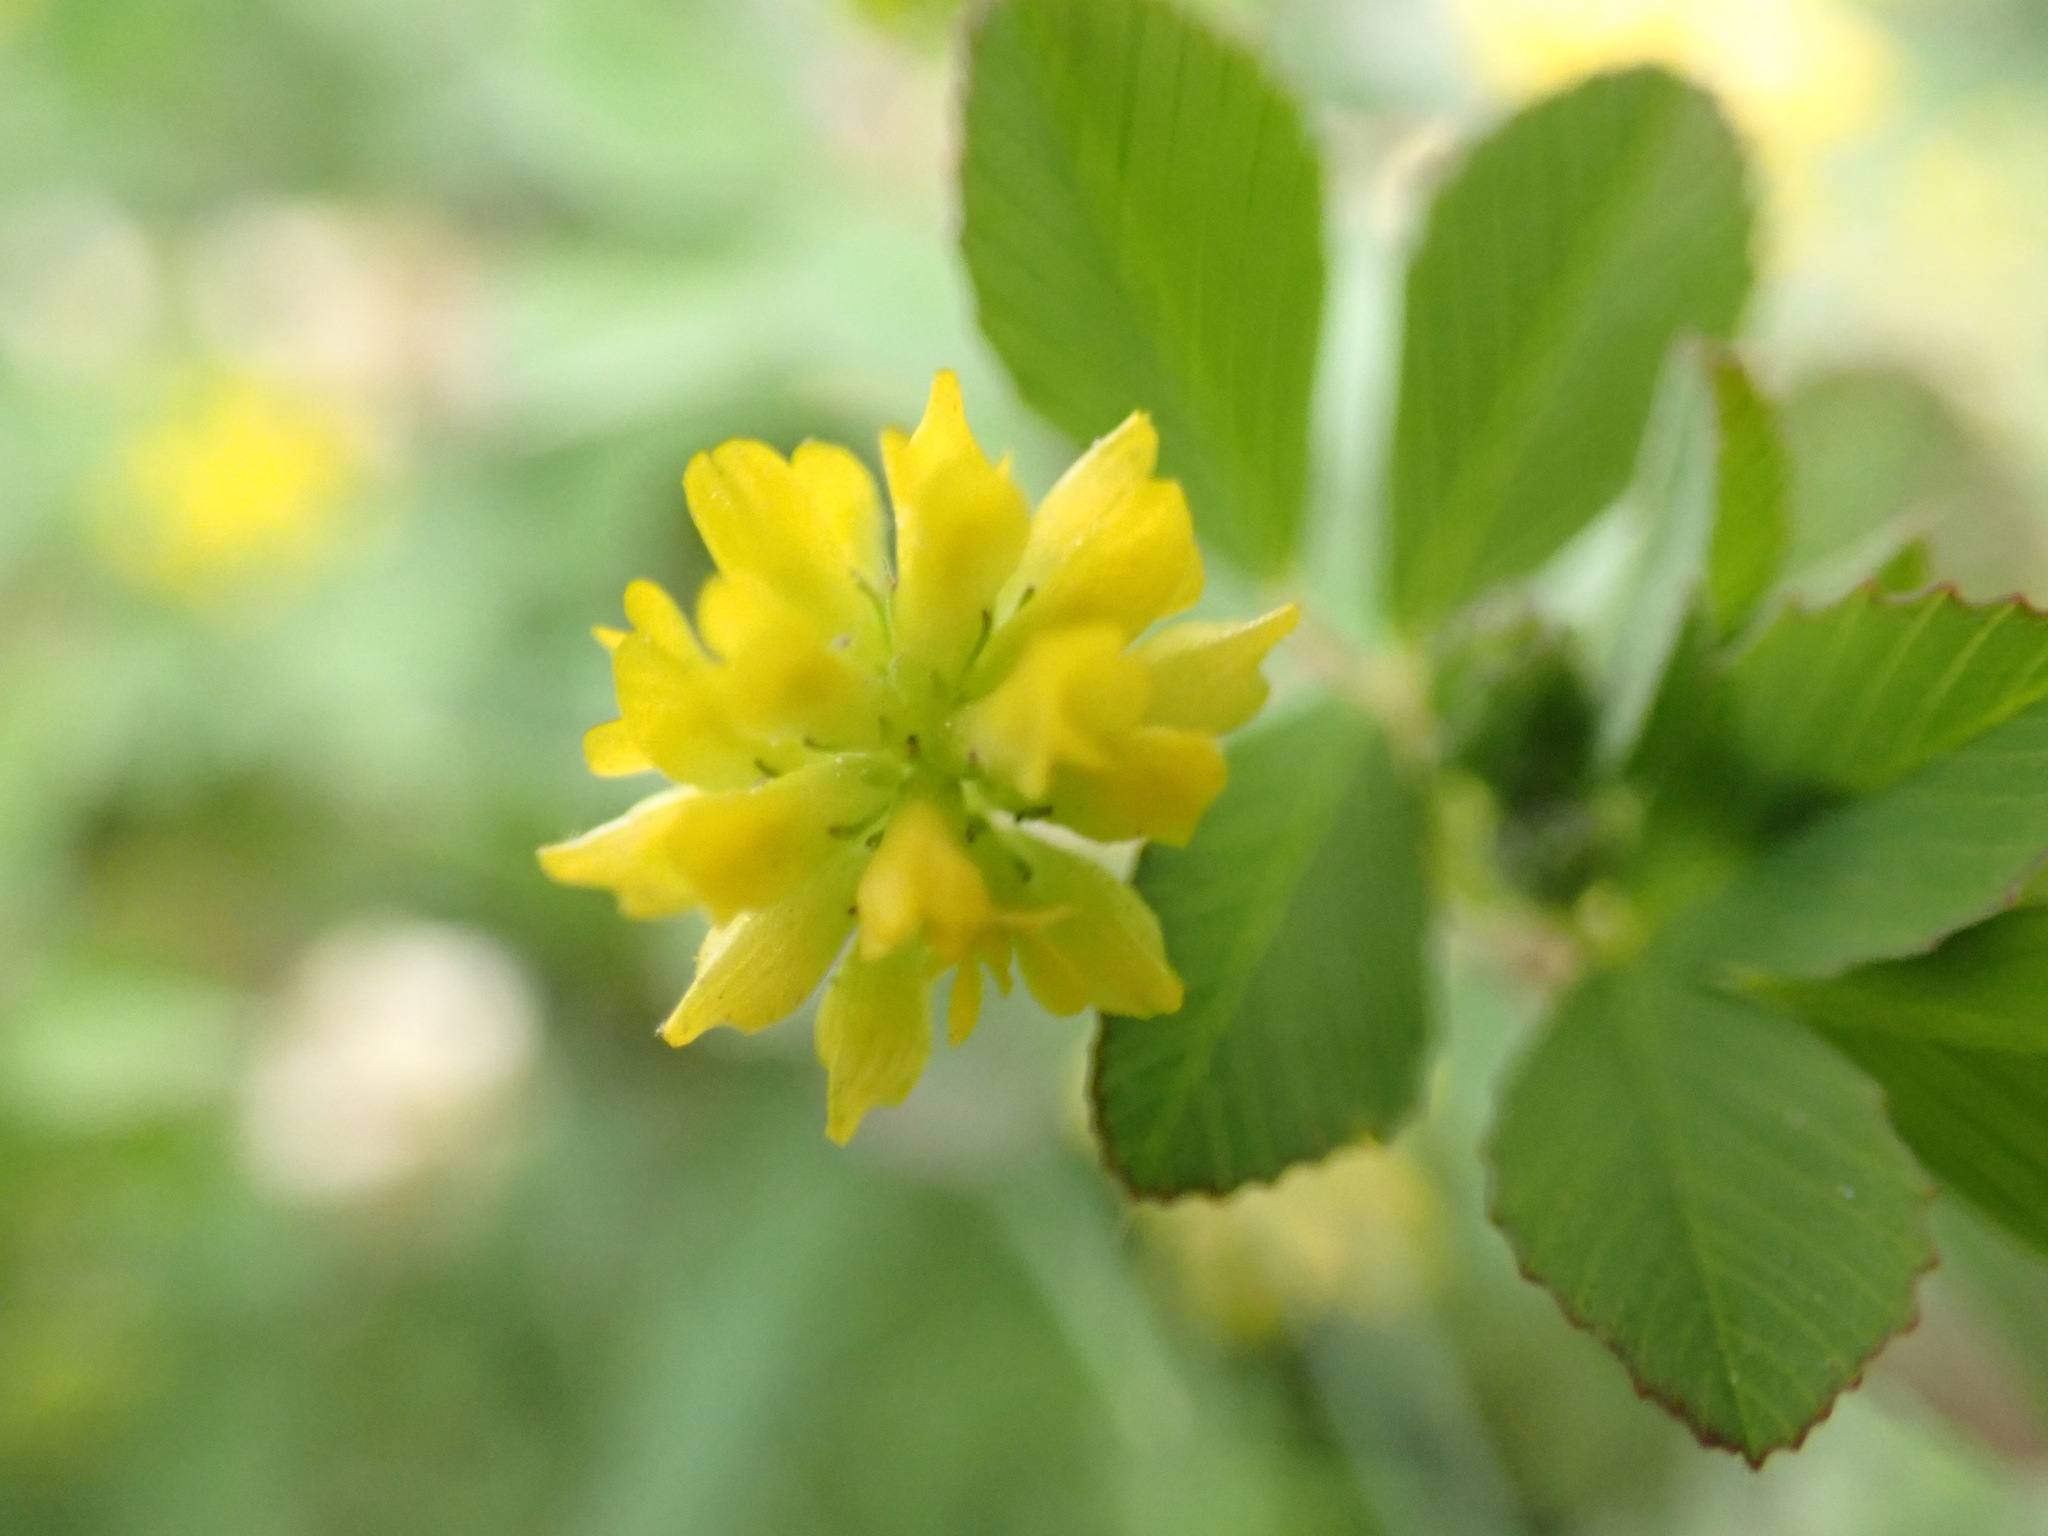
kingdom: Plantae
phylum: Tracheophyta
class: Magnoliopsida
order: Fabales
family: Fabaceae
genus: Trifolium
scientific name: Trifolium dubium
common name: Suckling clover
